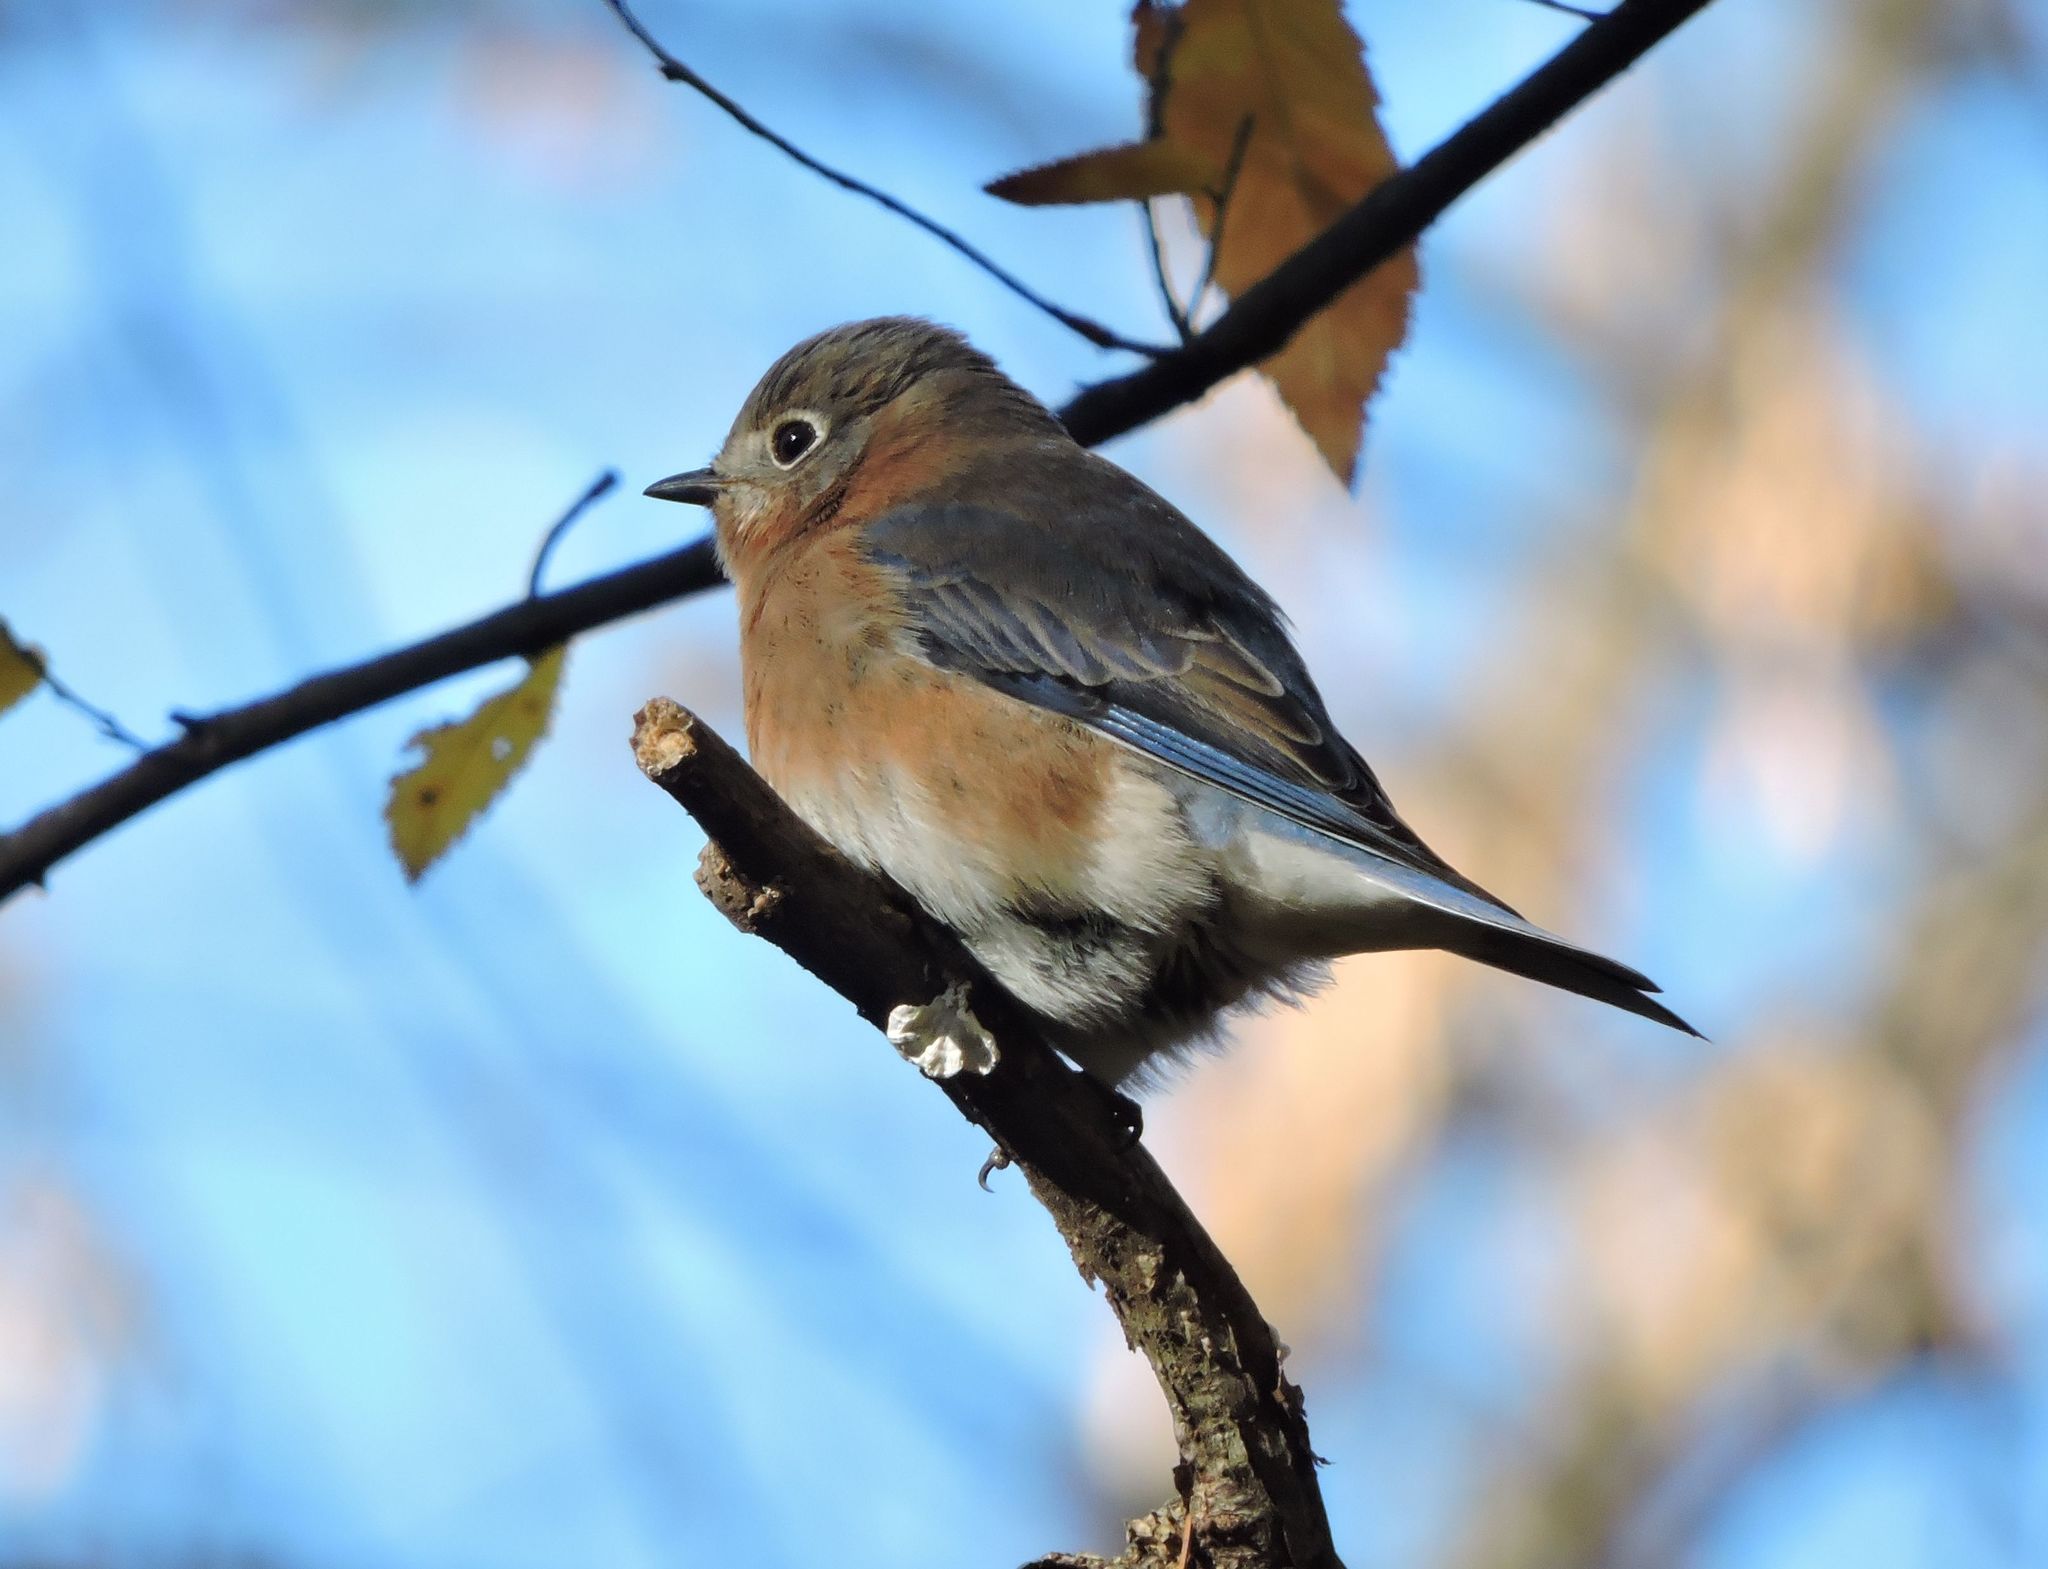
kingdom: Animalia
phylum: Chordata
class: Aves
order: Passeriformes
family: Turdidae
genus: Sialia
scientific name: Sialia sialis
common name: Eastern bluebird
